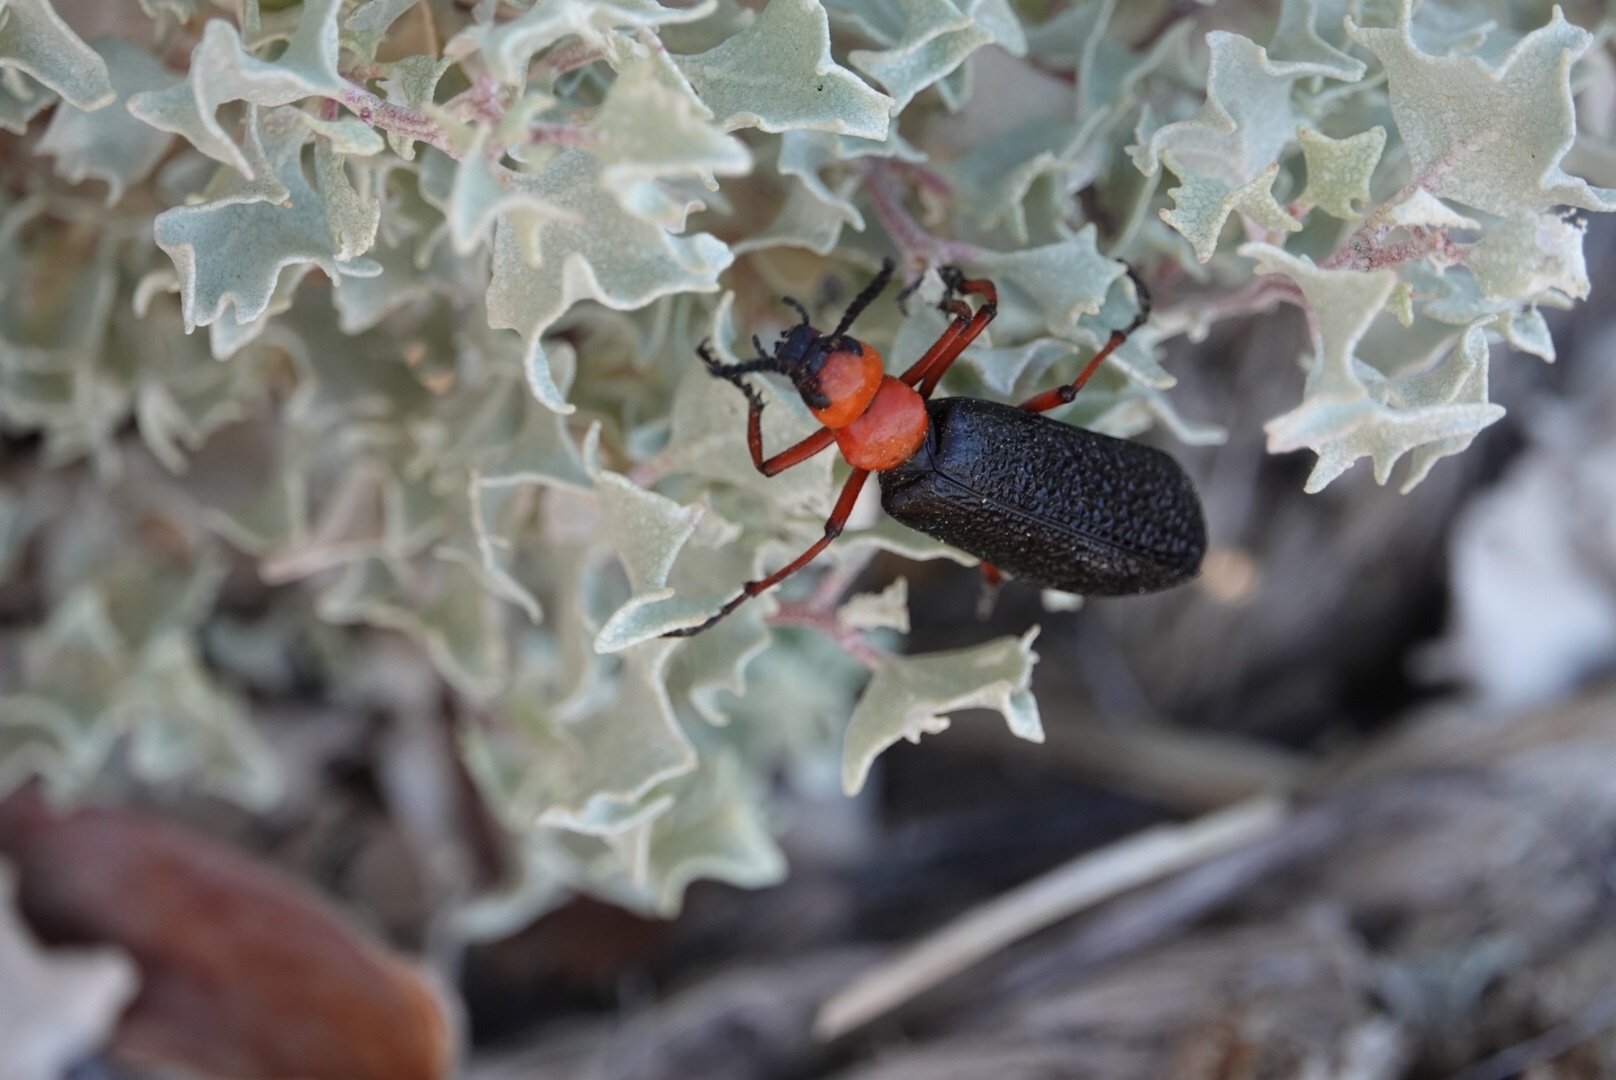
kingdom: Animalia
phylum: Arthropoda
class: Insecta
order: Coleoptera
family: Meloidae
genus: Lytta
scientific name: Lytta magister
